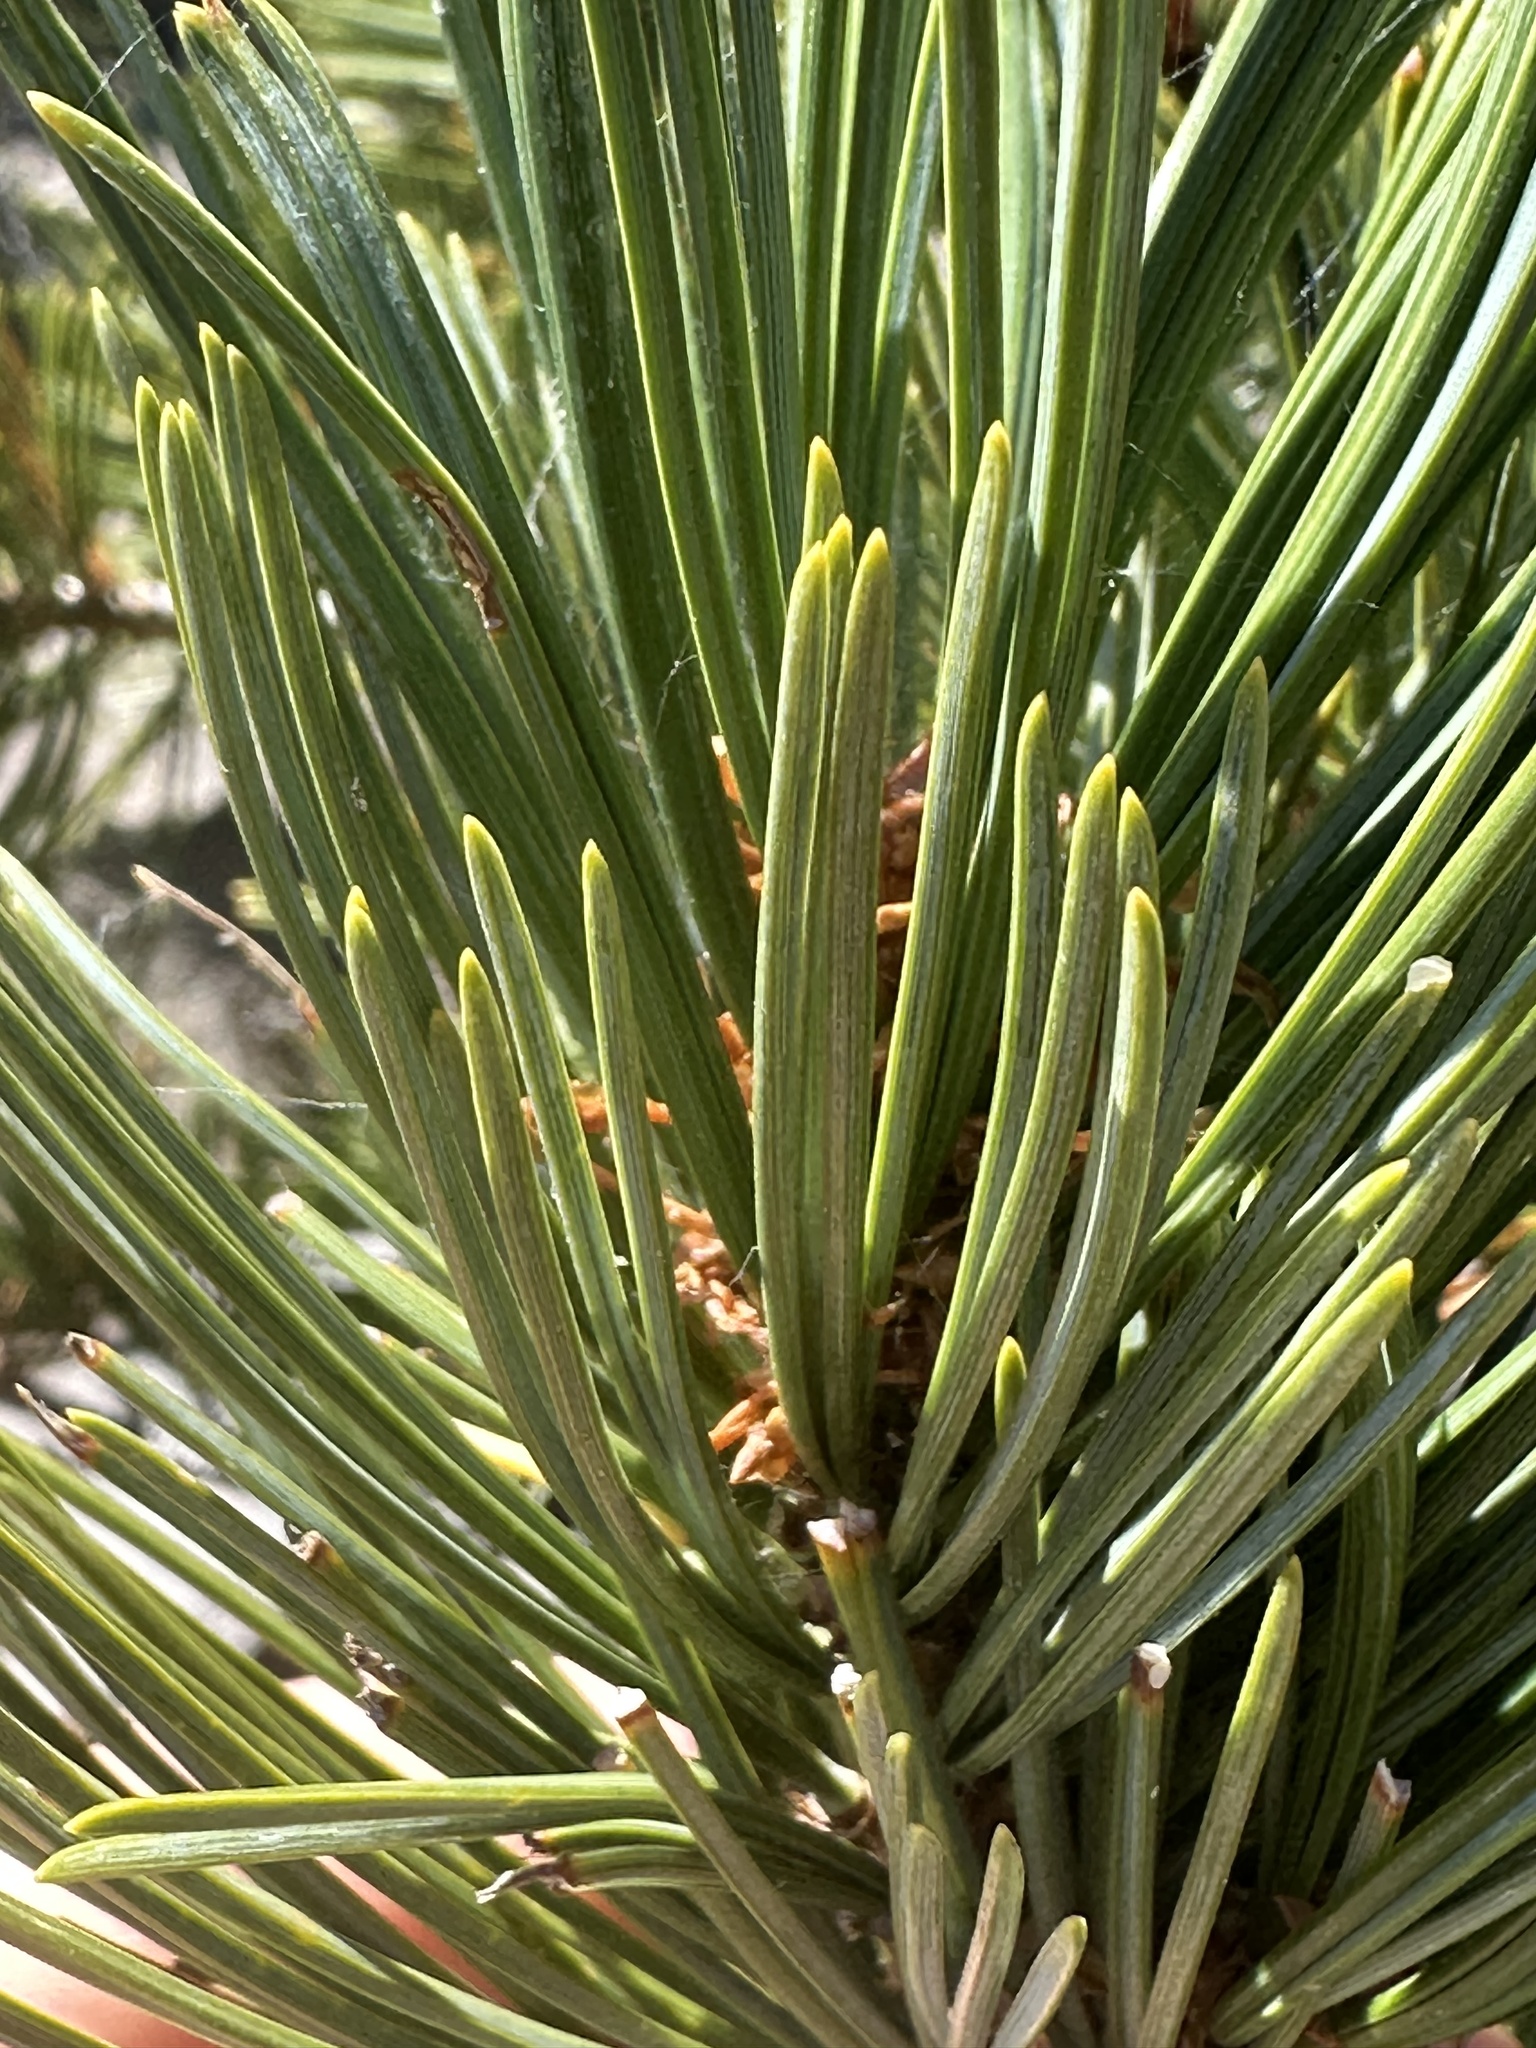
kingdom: Plantae
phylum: Tracheophyta
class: Pinopsida
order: Pinales
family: Pinaceae
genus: Pinus
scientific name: Pinus albicaulis
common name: Whitebark pine
